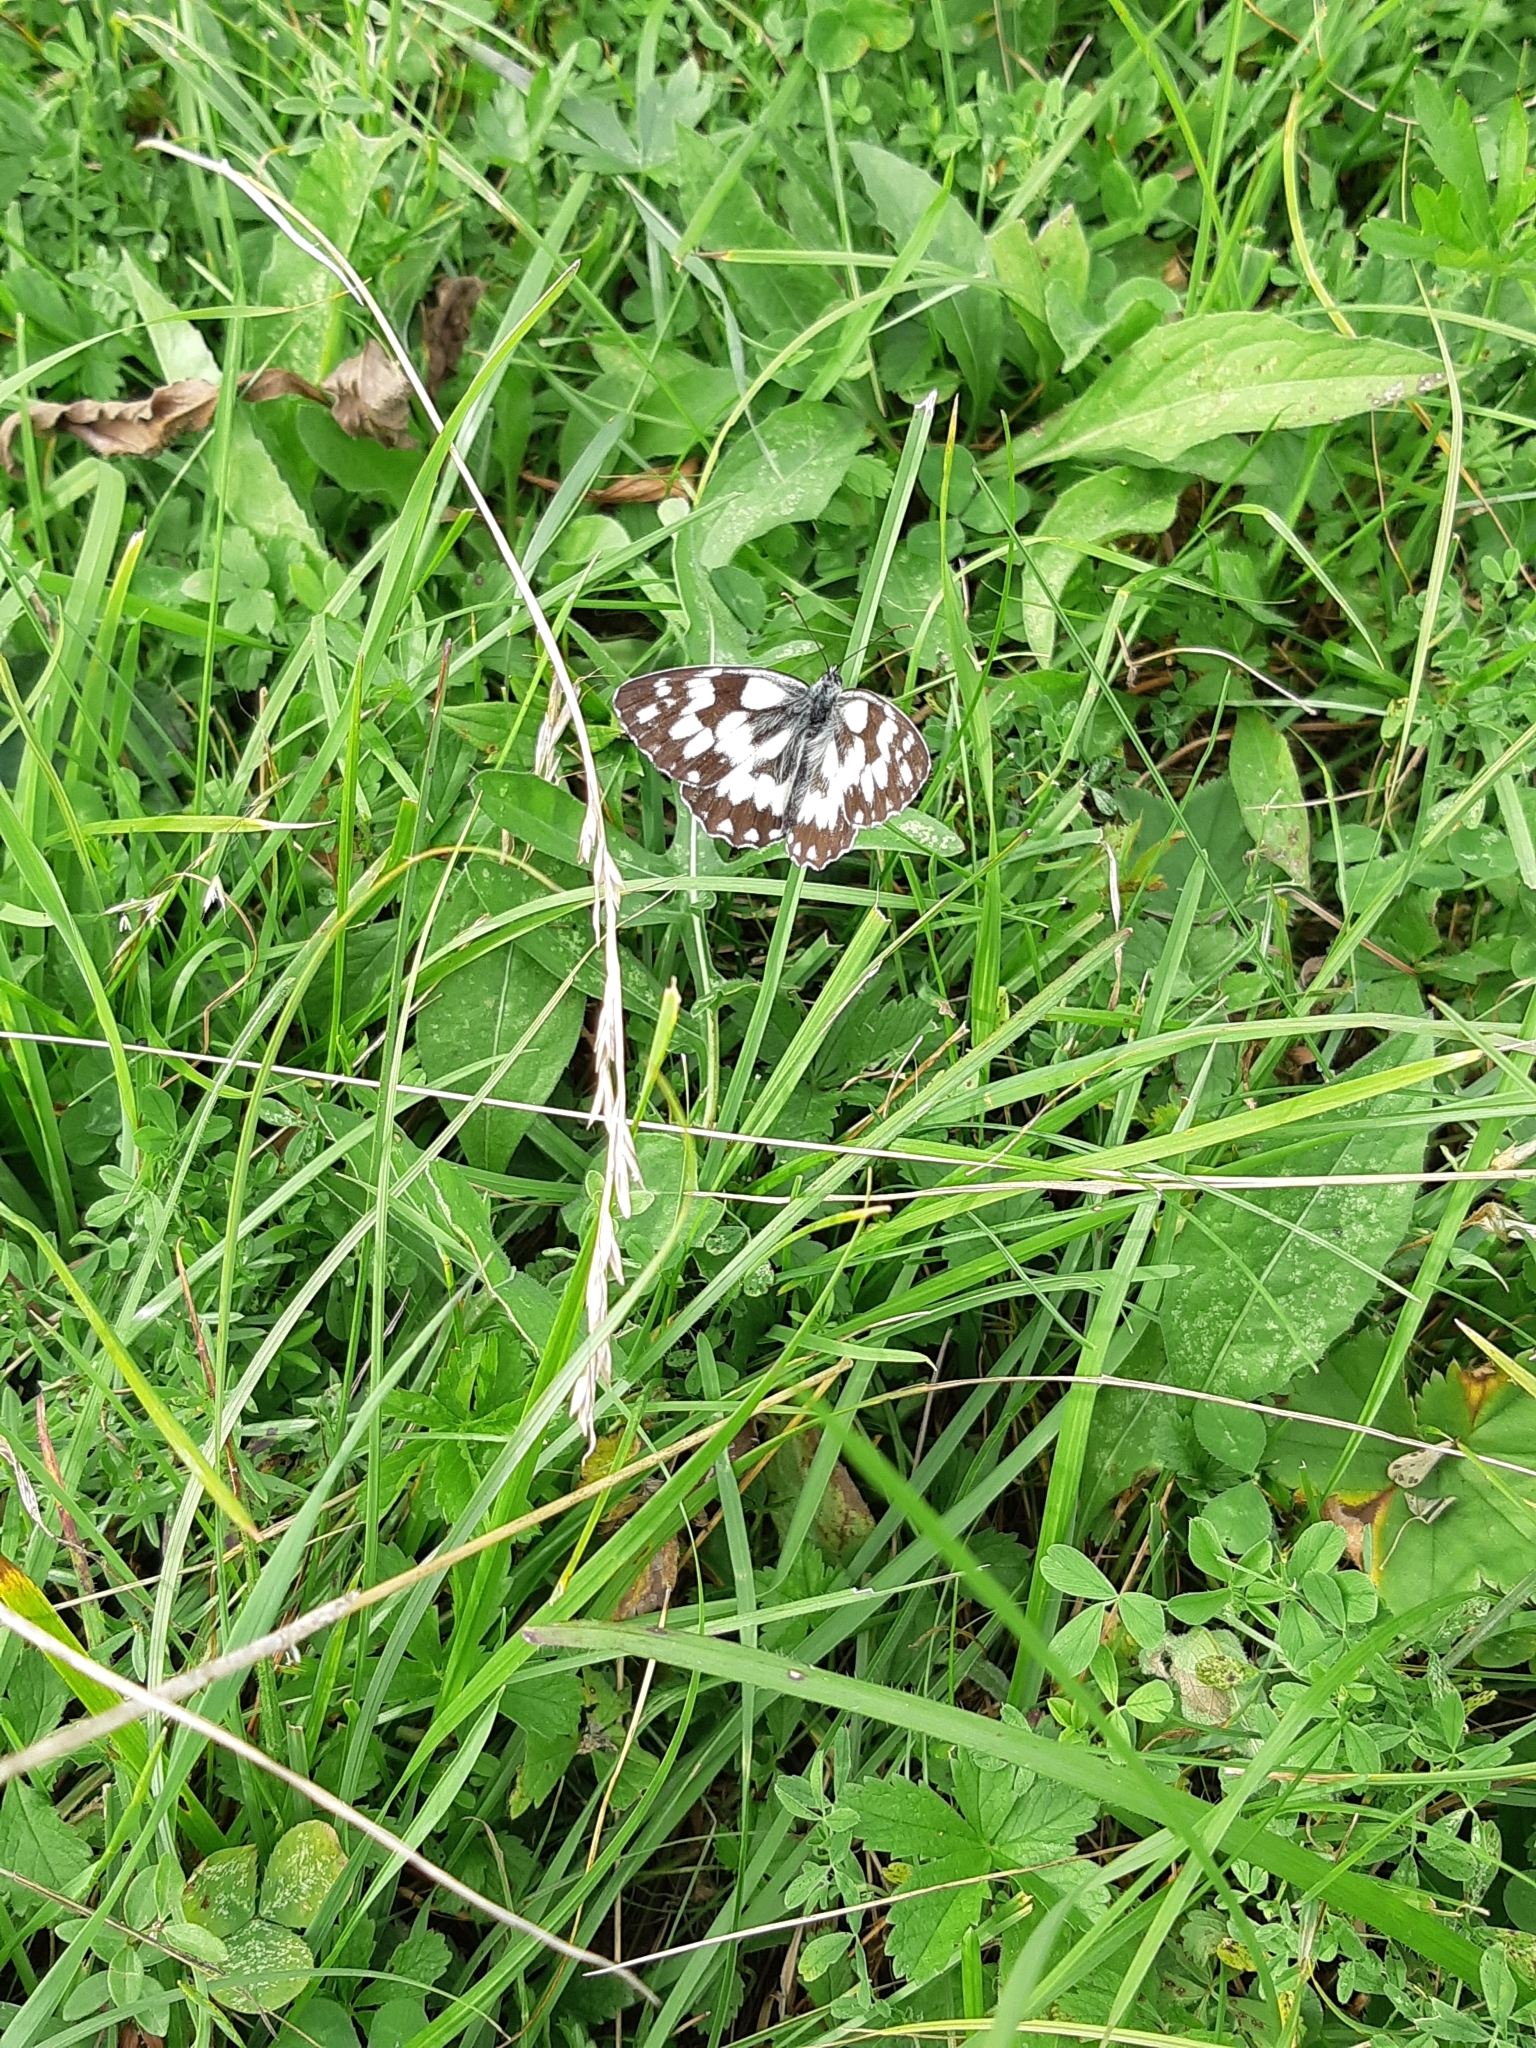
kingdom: Animalia
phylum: Arthropoda
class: Insecta
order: Lepidoptera
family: Nymphalidae
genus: Melanargia
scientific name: Melanargia galathea
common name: Marbled white
